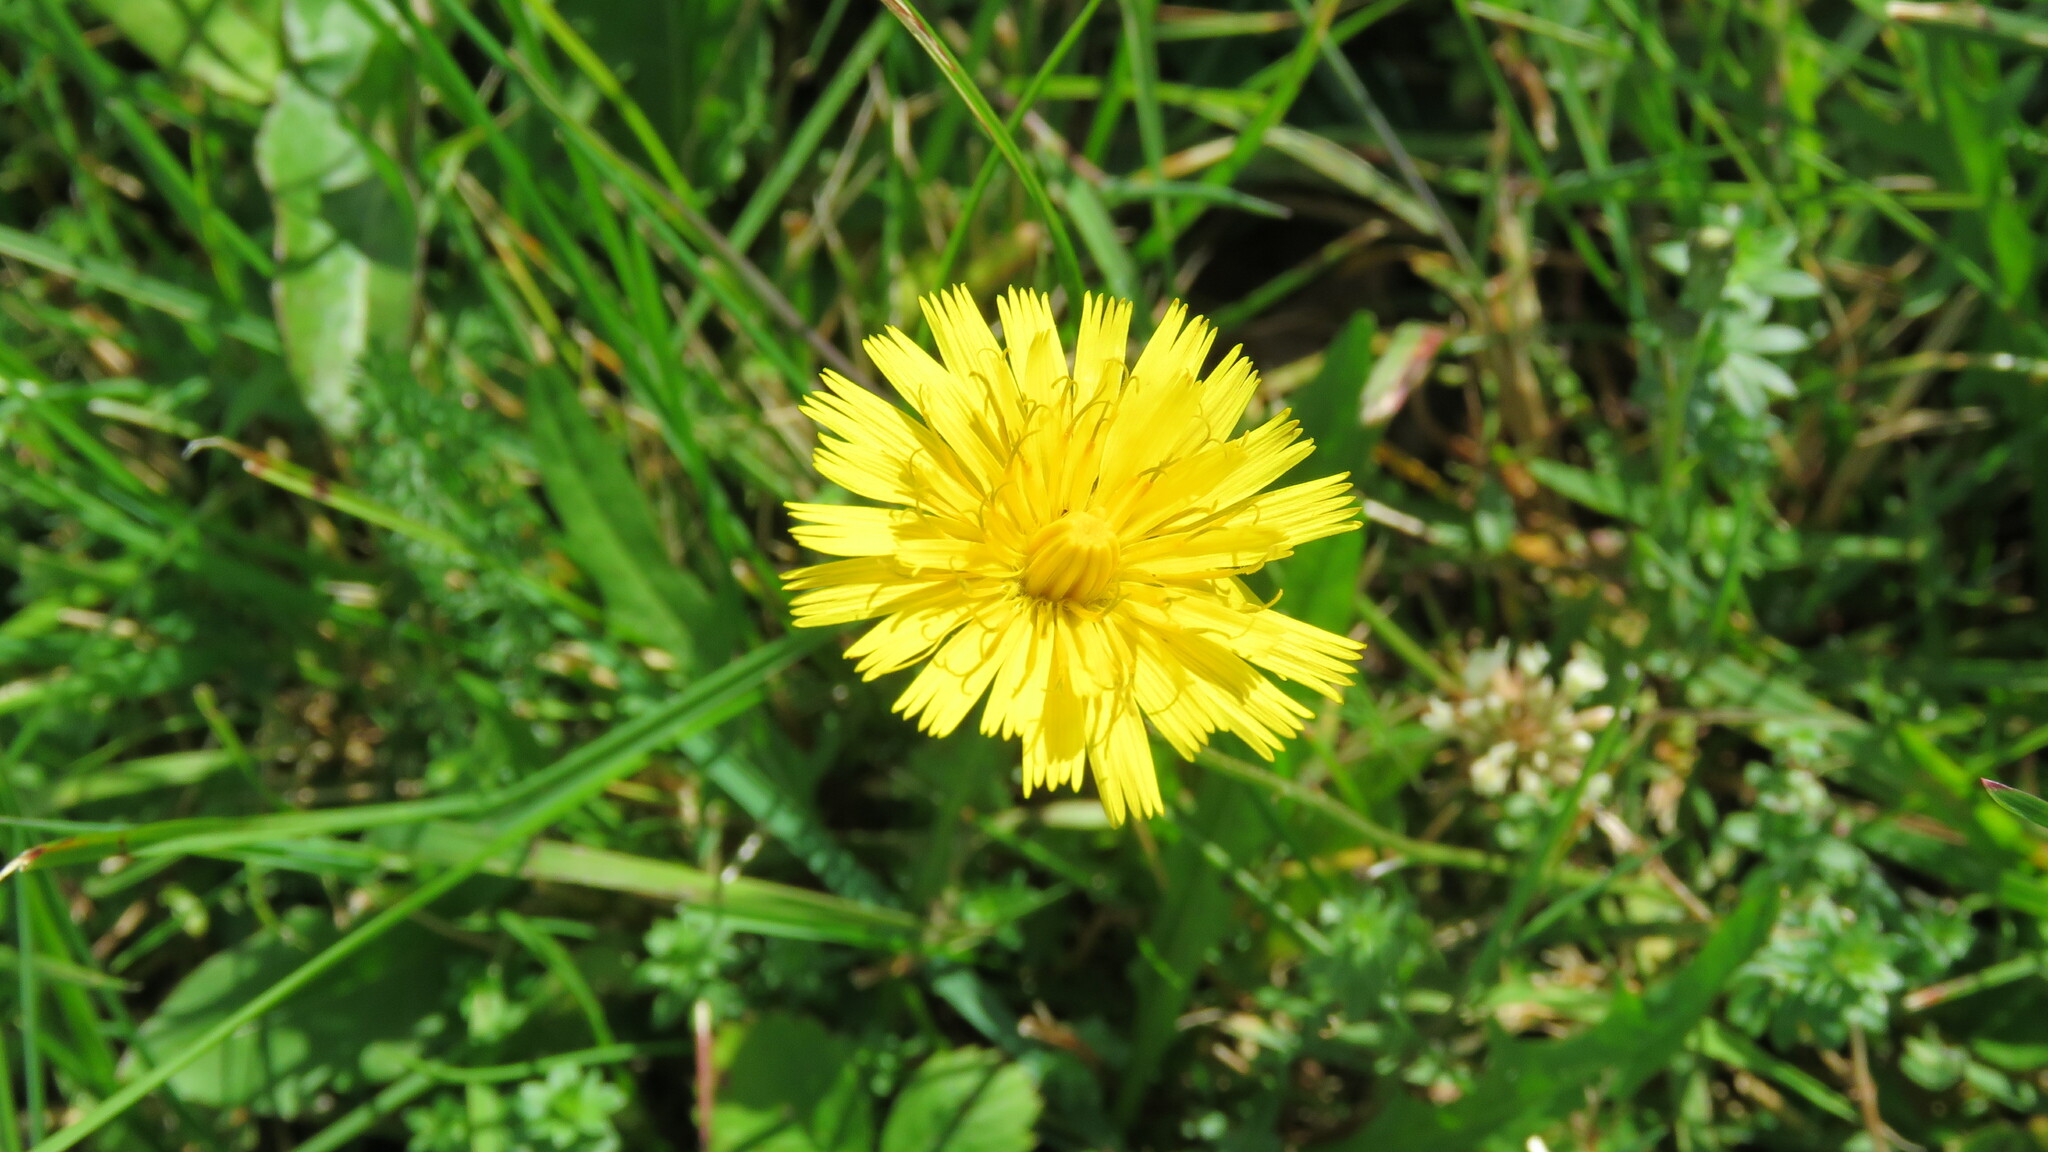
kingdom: Plantae
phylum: Tracheophyta
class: Magnoliopsida
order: Asterales
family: Asteraceae
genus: Scorzoneroides
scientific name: Scorzoneroides autumnalis
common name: Autumn hawkbit
